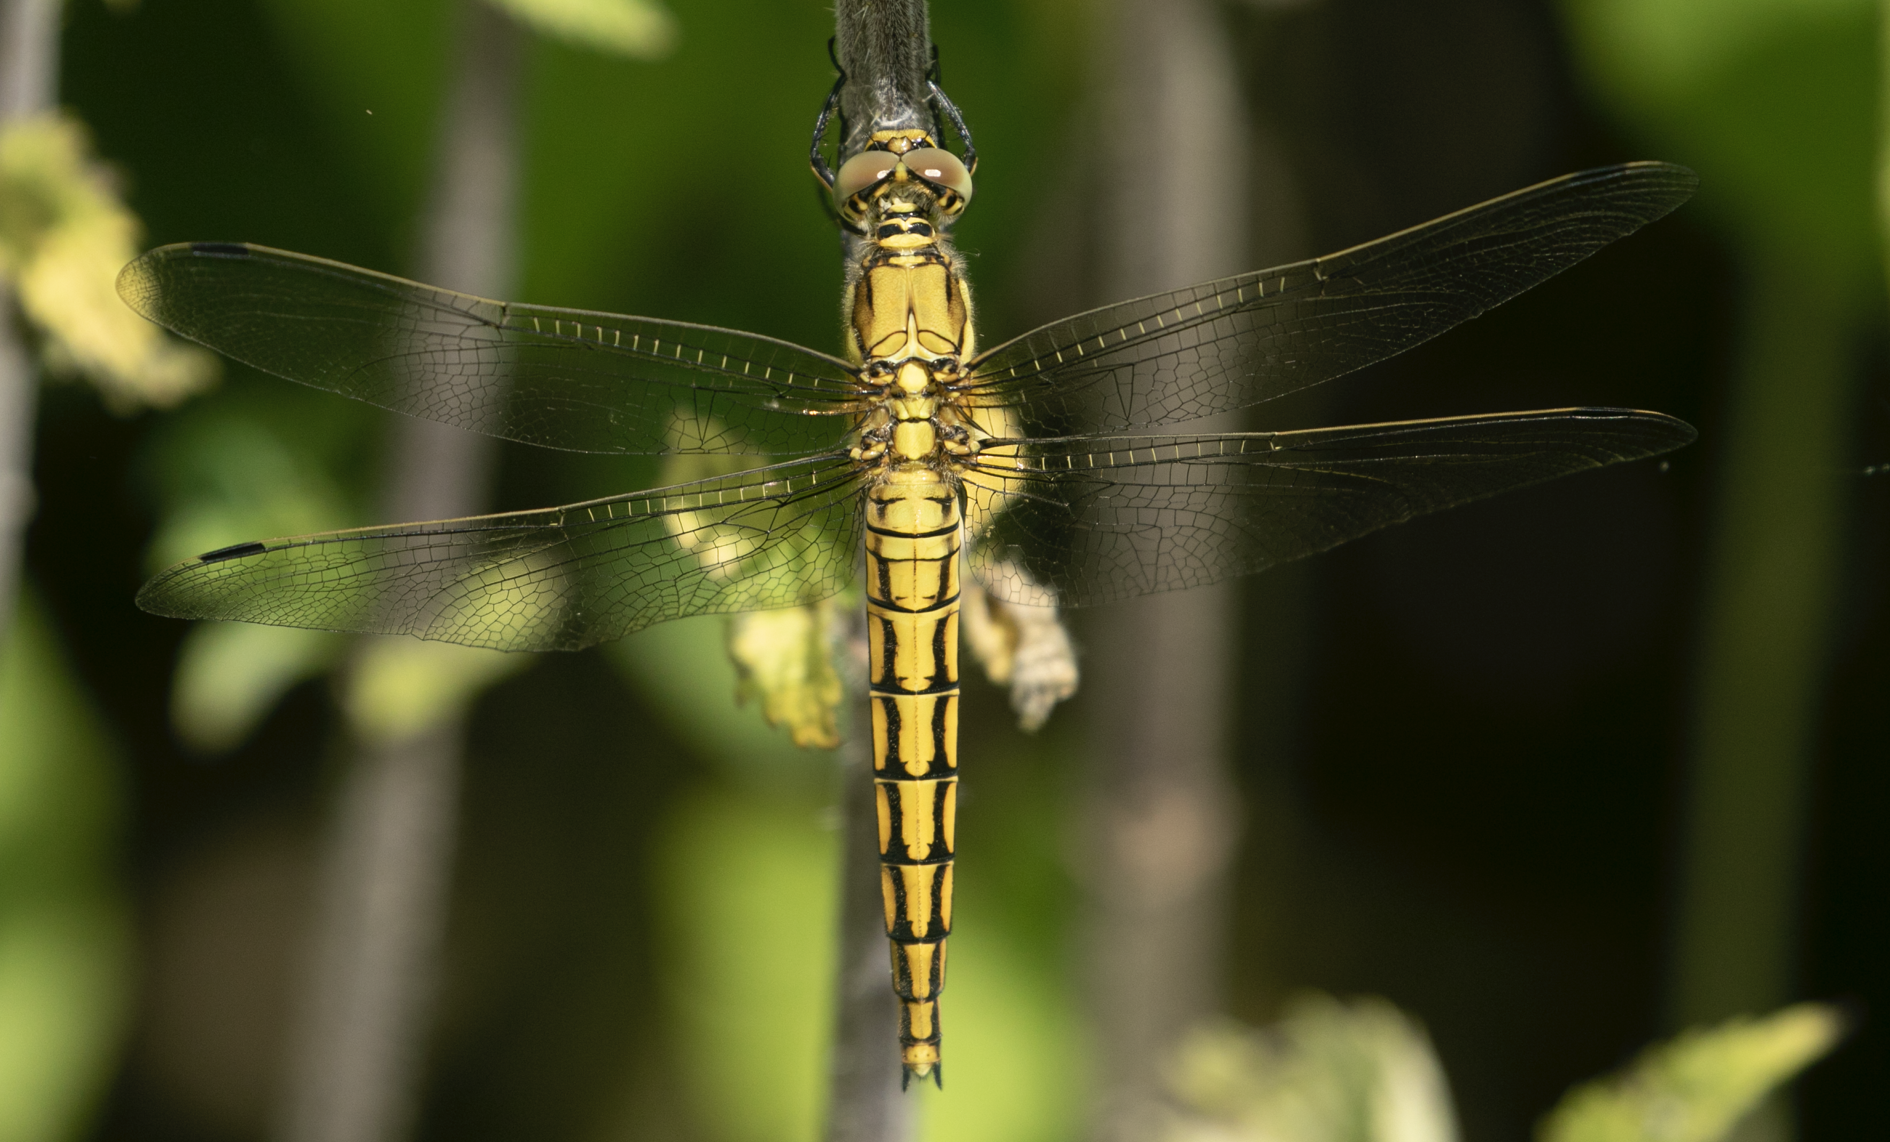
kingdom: Animalia
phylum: Arthropoda
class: Insecta
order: Odonata
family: Libellulidae
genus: Orthetrum
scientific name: Orthetrum cancellatum
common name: Black-tailed skimmer
